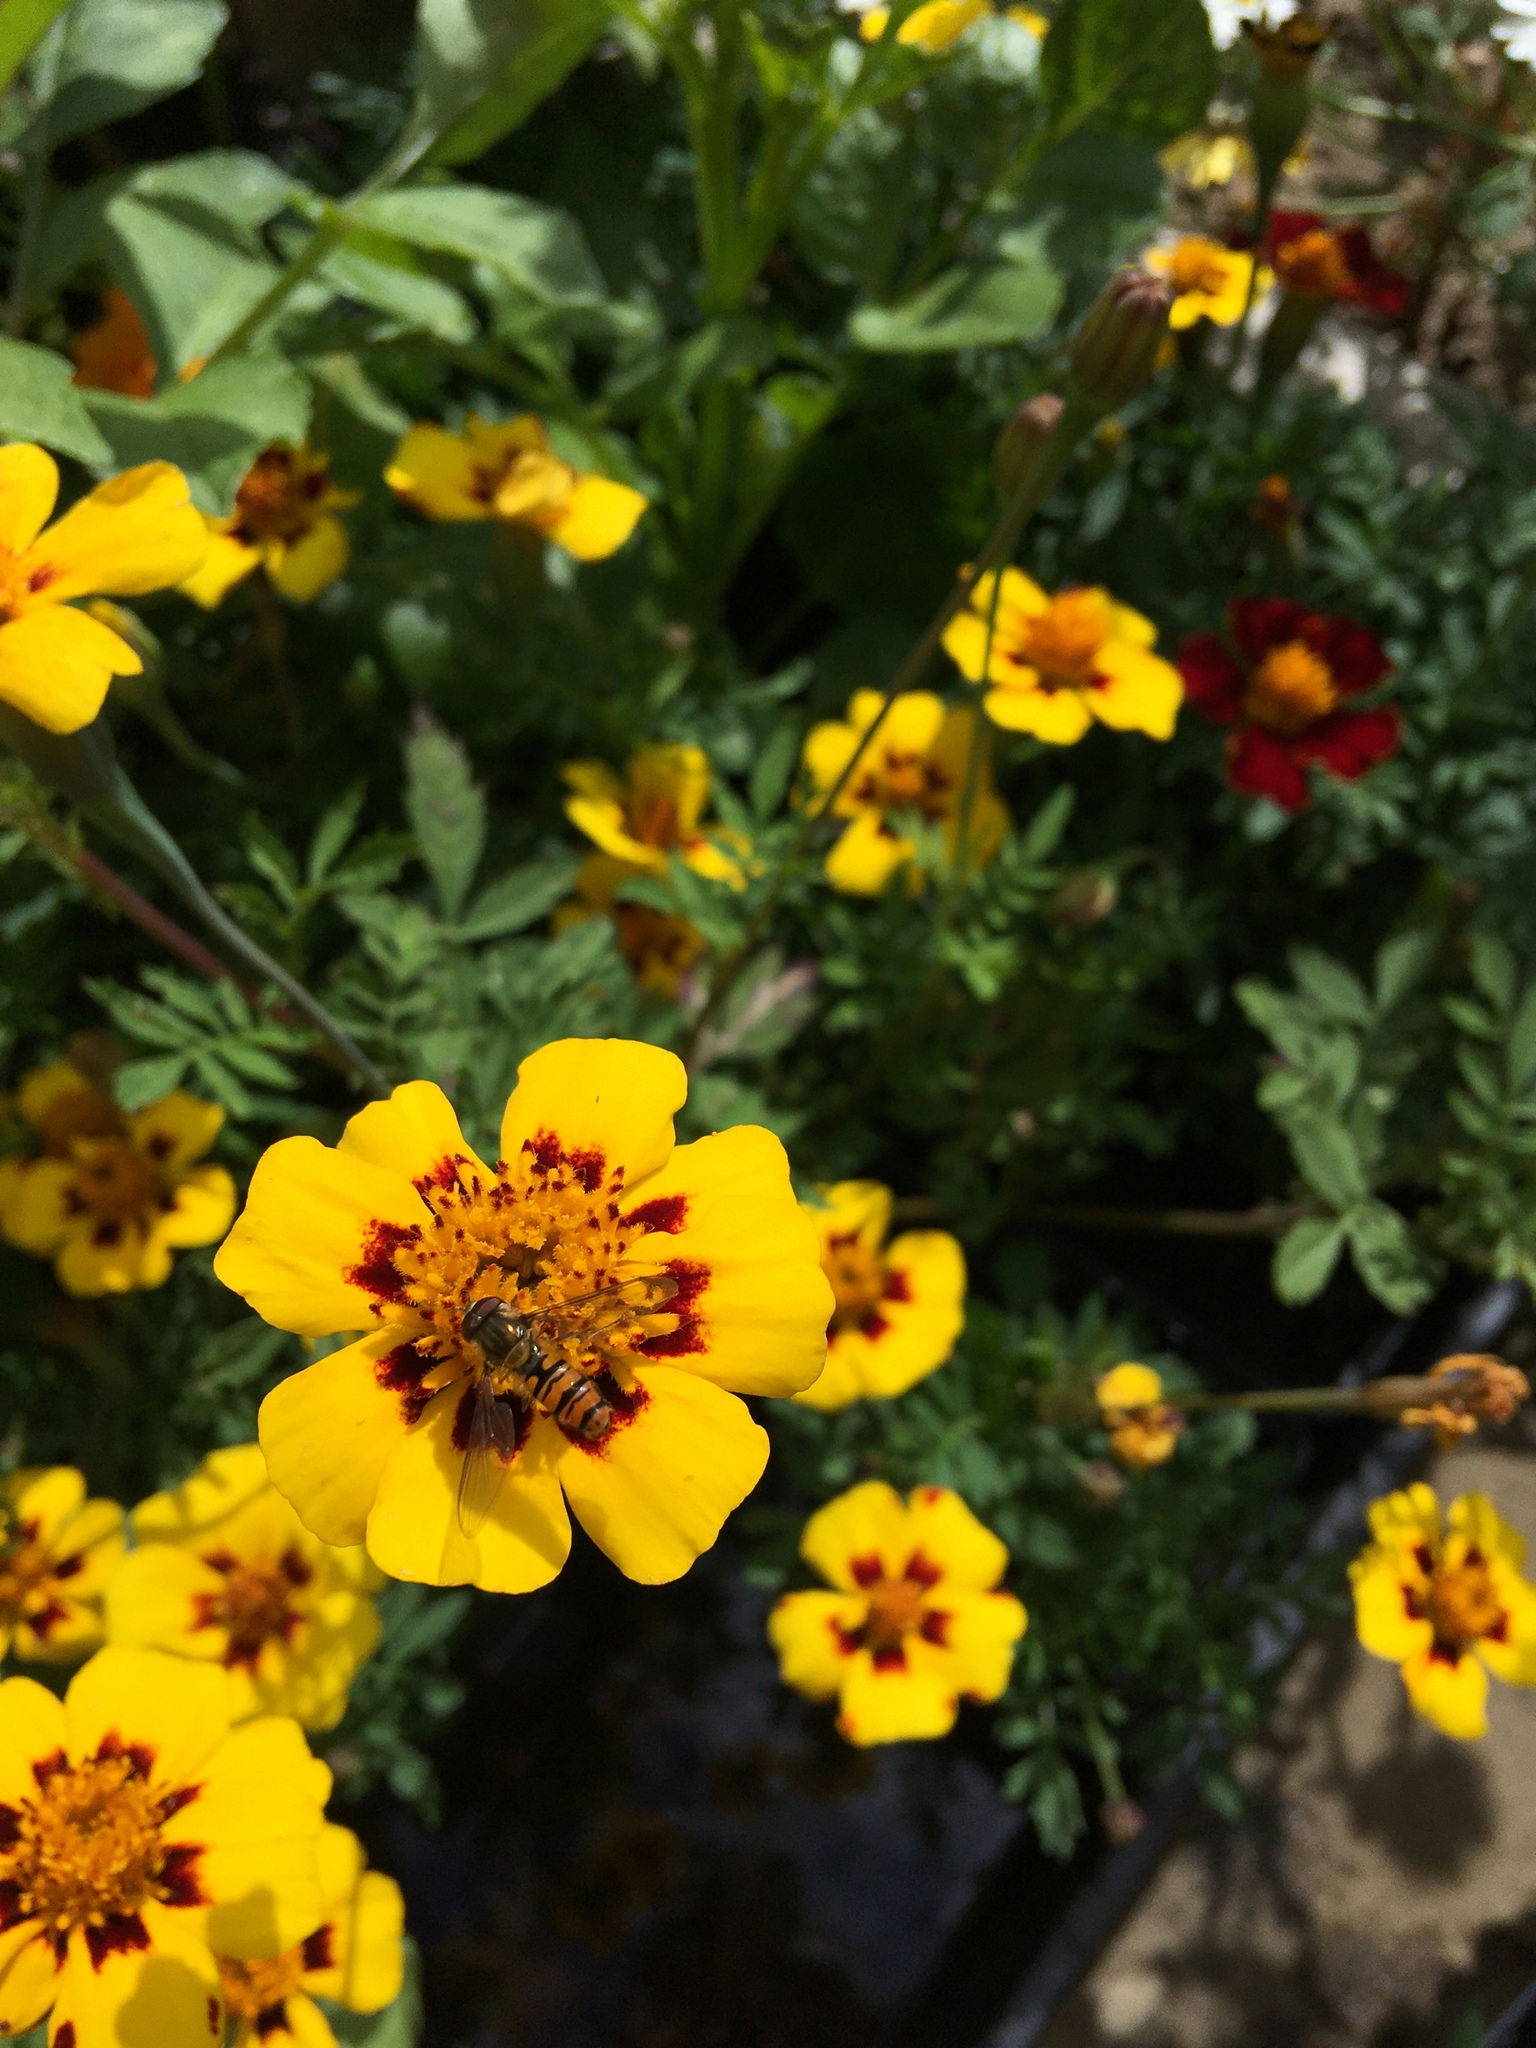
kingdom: Animalia
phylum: Arthropoda
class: Insecta
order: Diptera
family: Syrphidae
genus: Episyrphus
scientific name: Episyrphus balteatus
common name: Marmalade hoverfly
